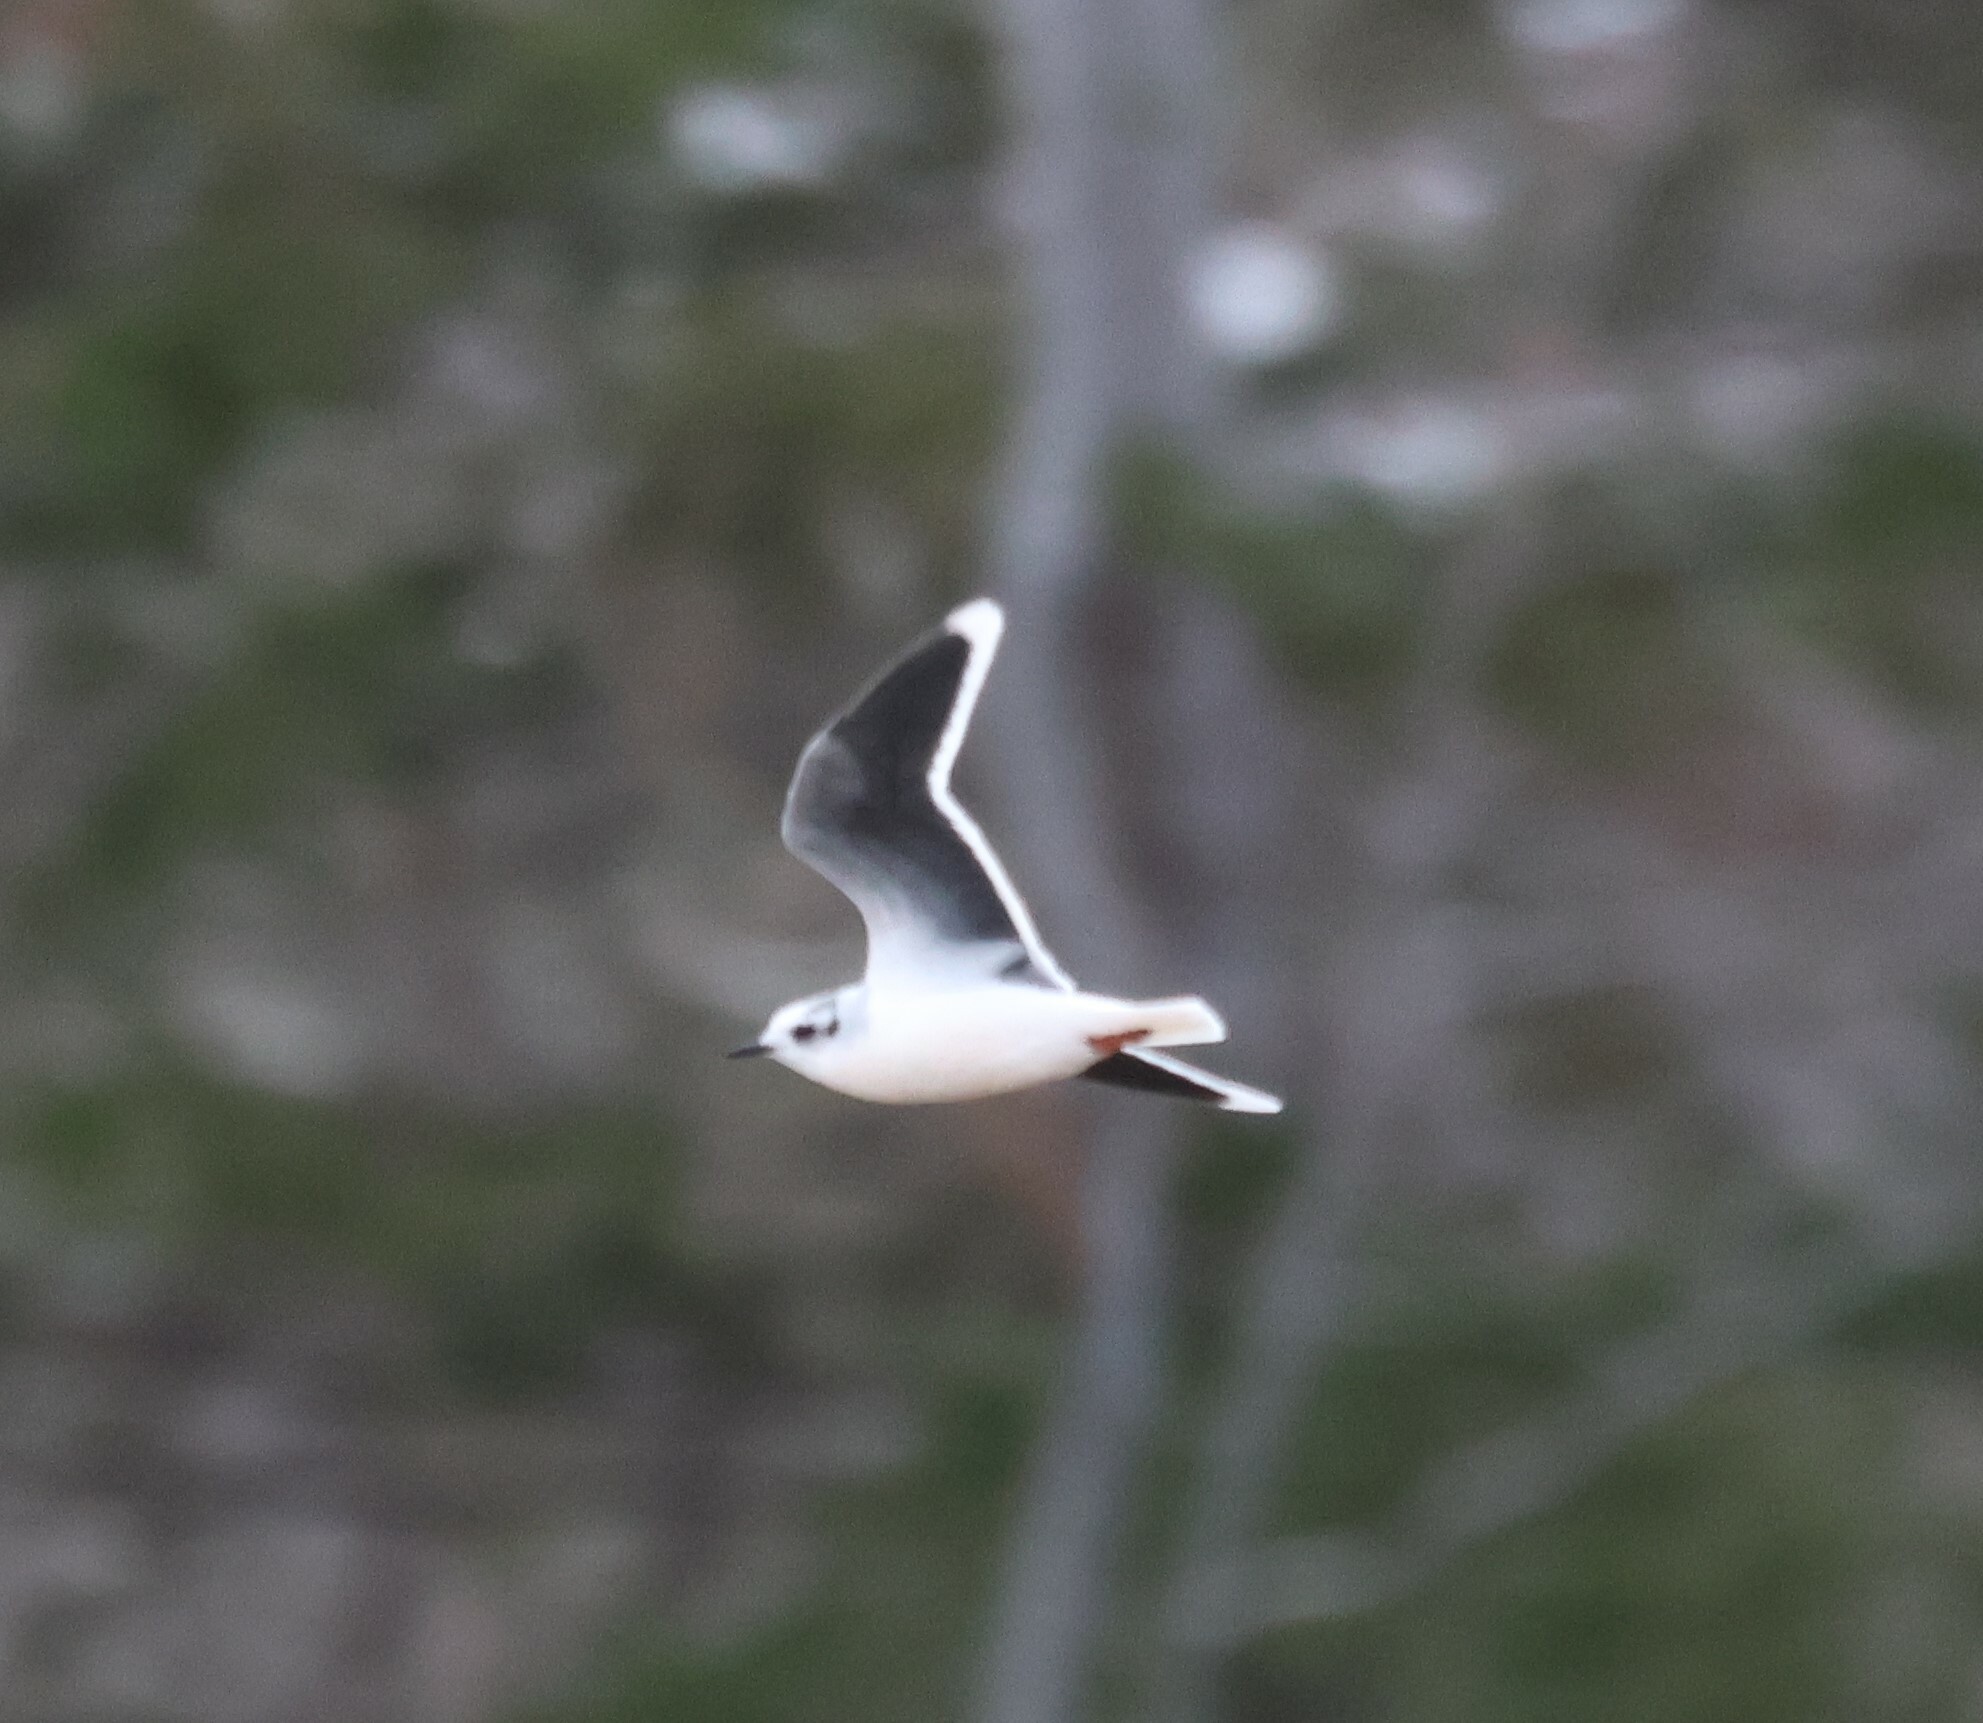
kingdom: Animalia
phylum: Chordata
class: Aves
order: Charadriiformes
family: Laridae
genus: Hydrocoloeus
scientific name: Hydrocoloeus minutus
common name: Little gull
